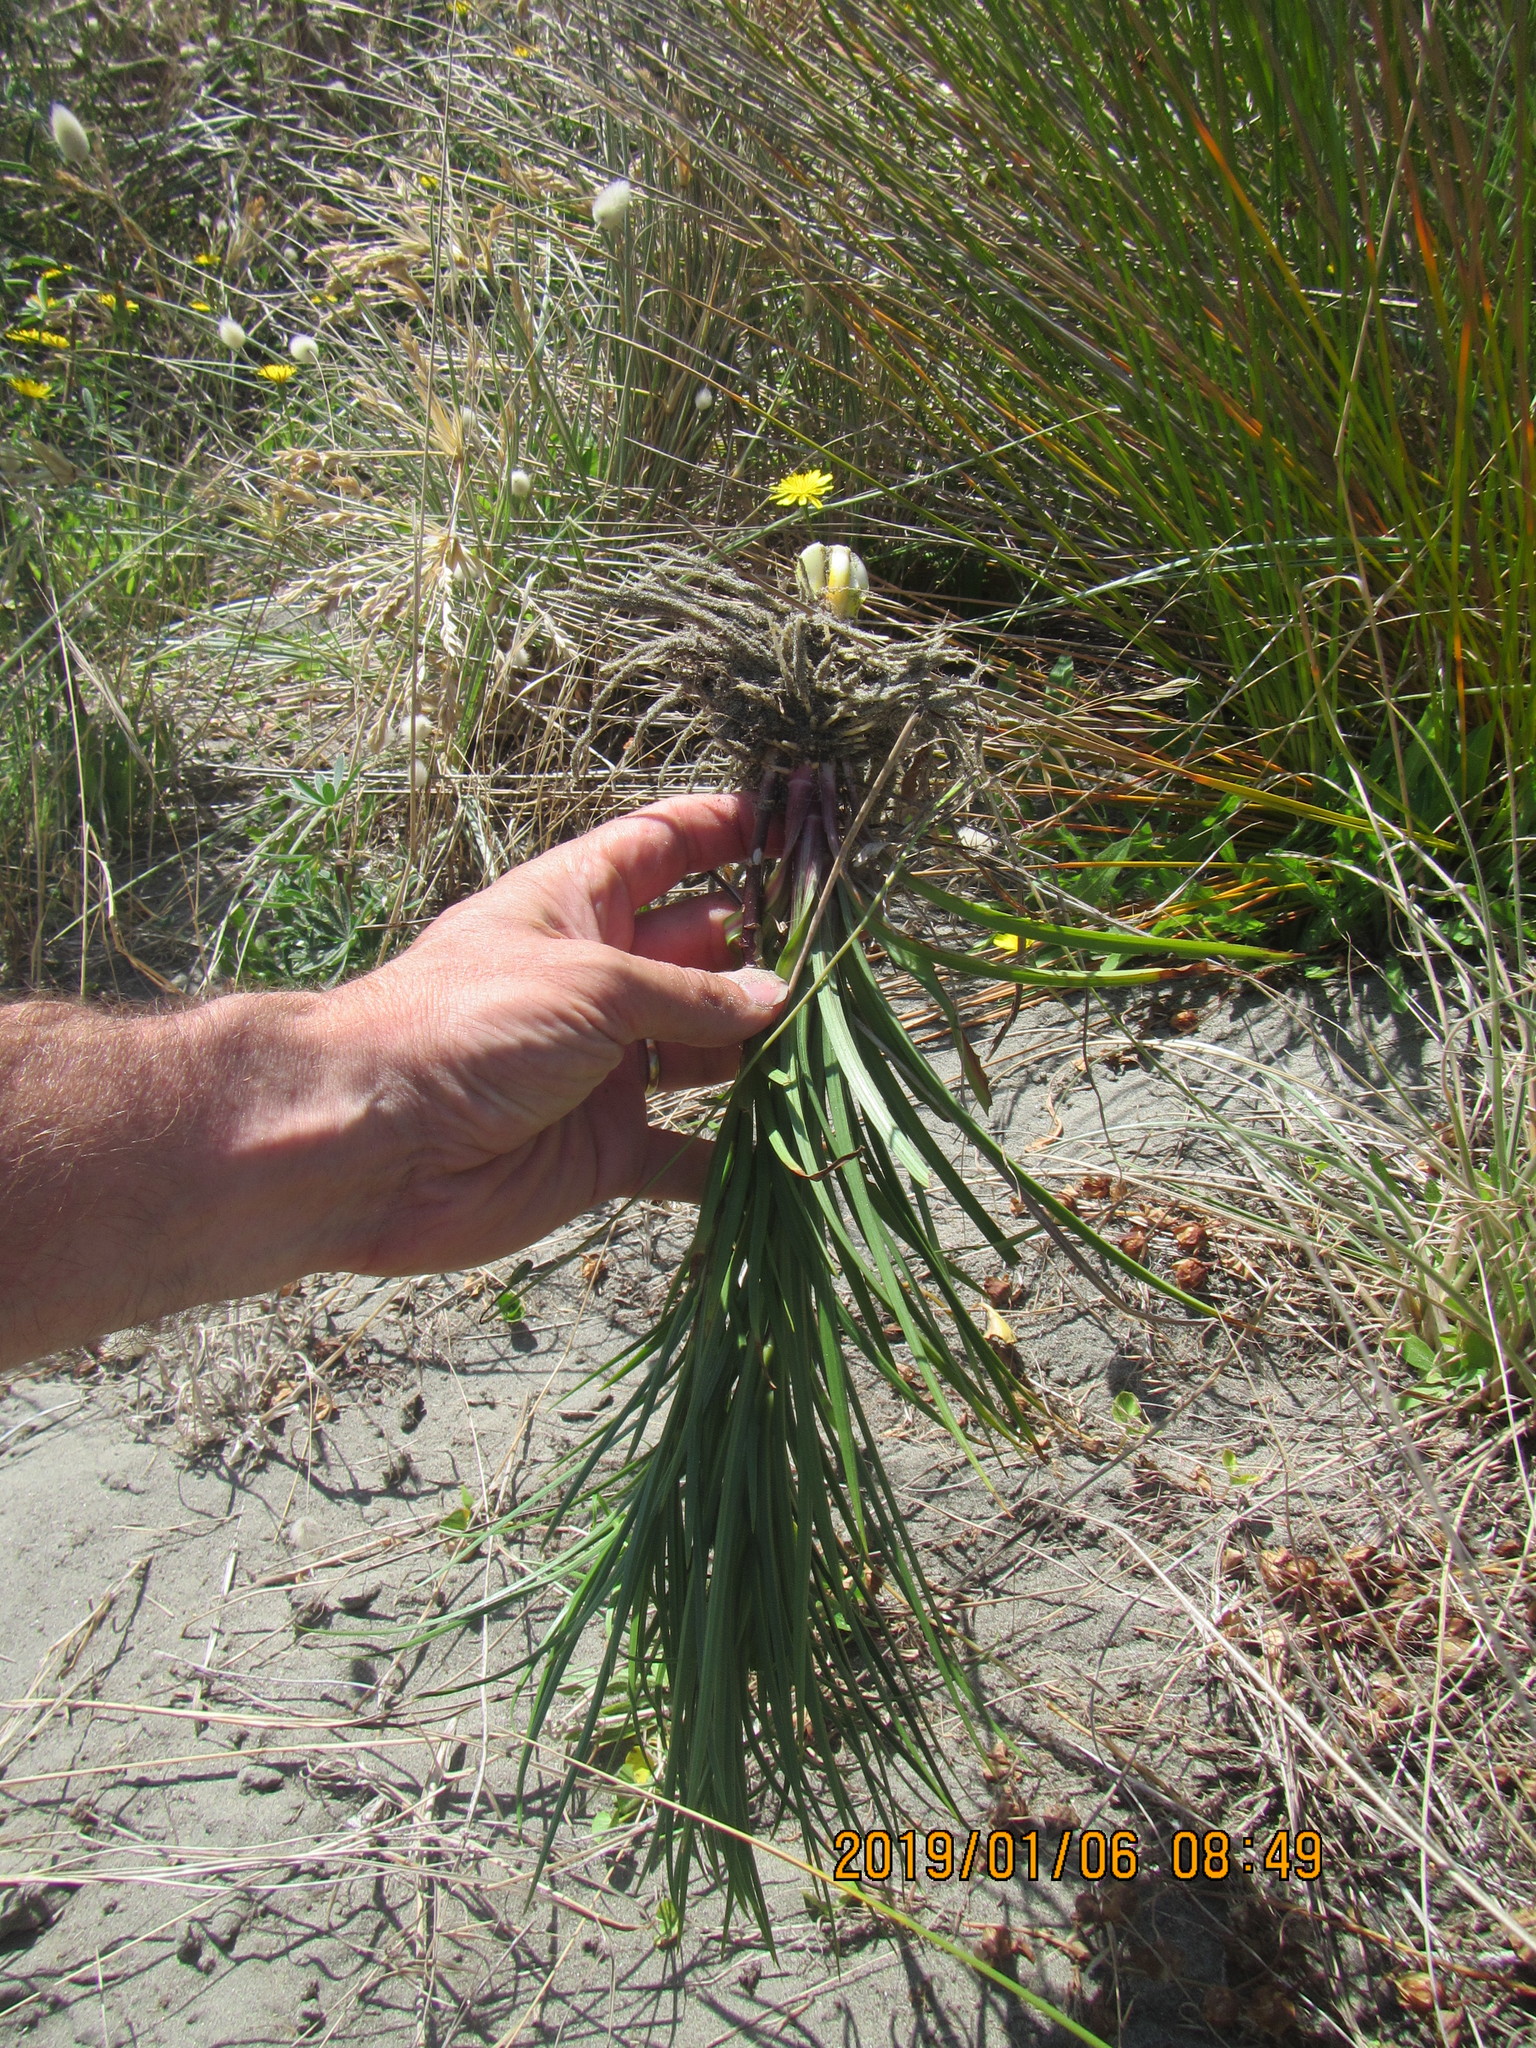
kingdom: Plantae
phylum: Tracheophyta
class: Liliopsida
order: Liliales
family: Liliaceae
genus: Lilium
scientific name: Lilium formosanum
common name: Formosa lily
